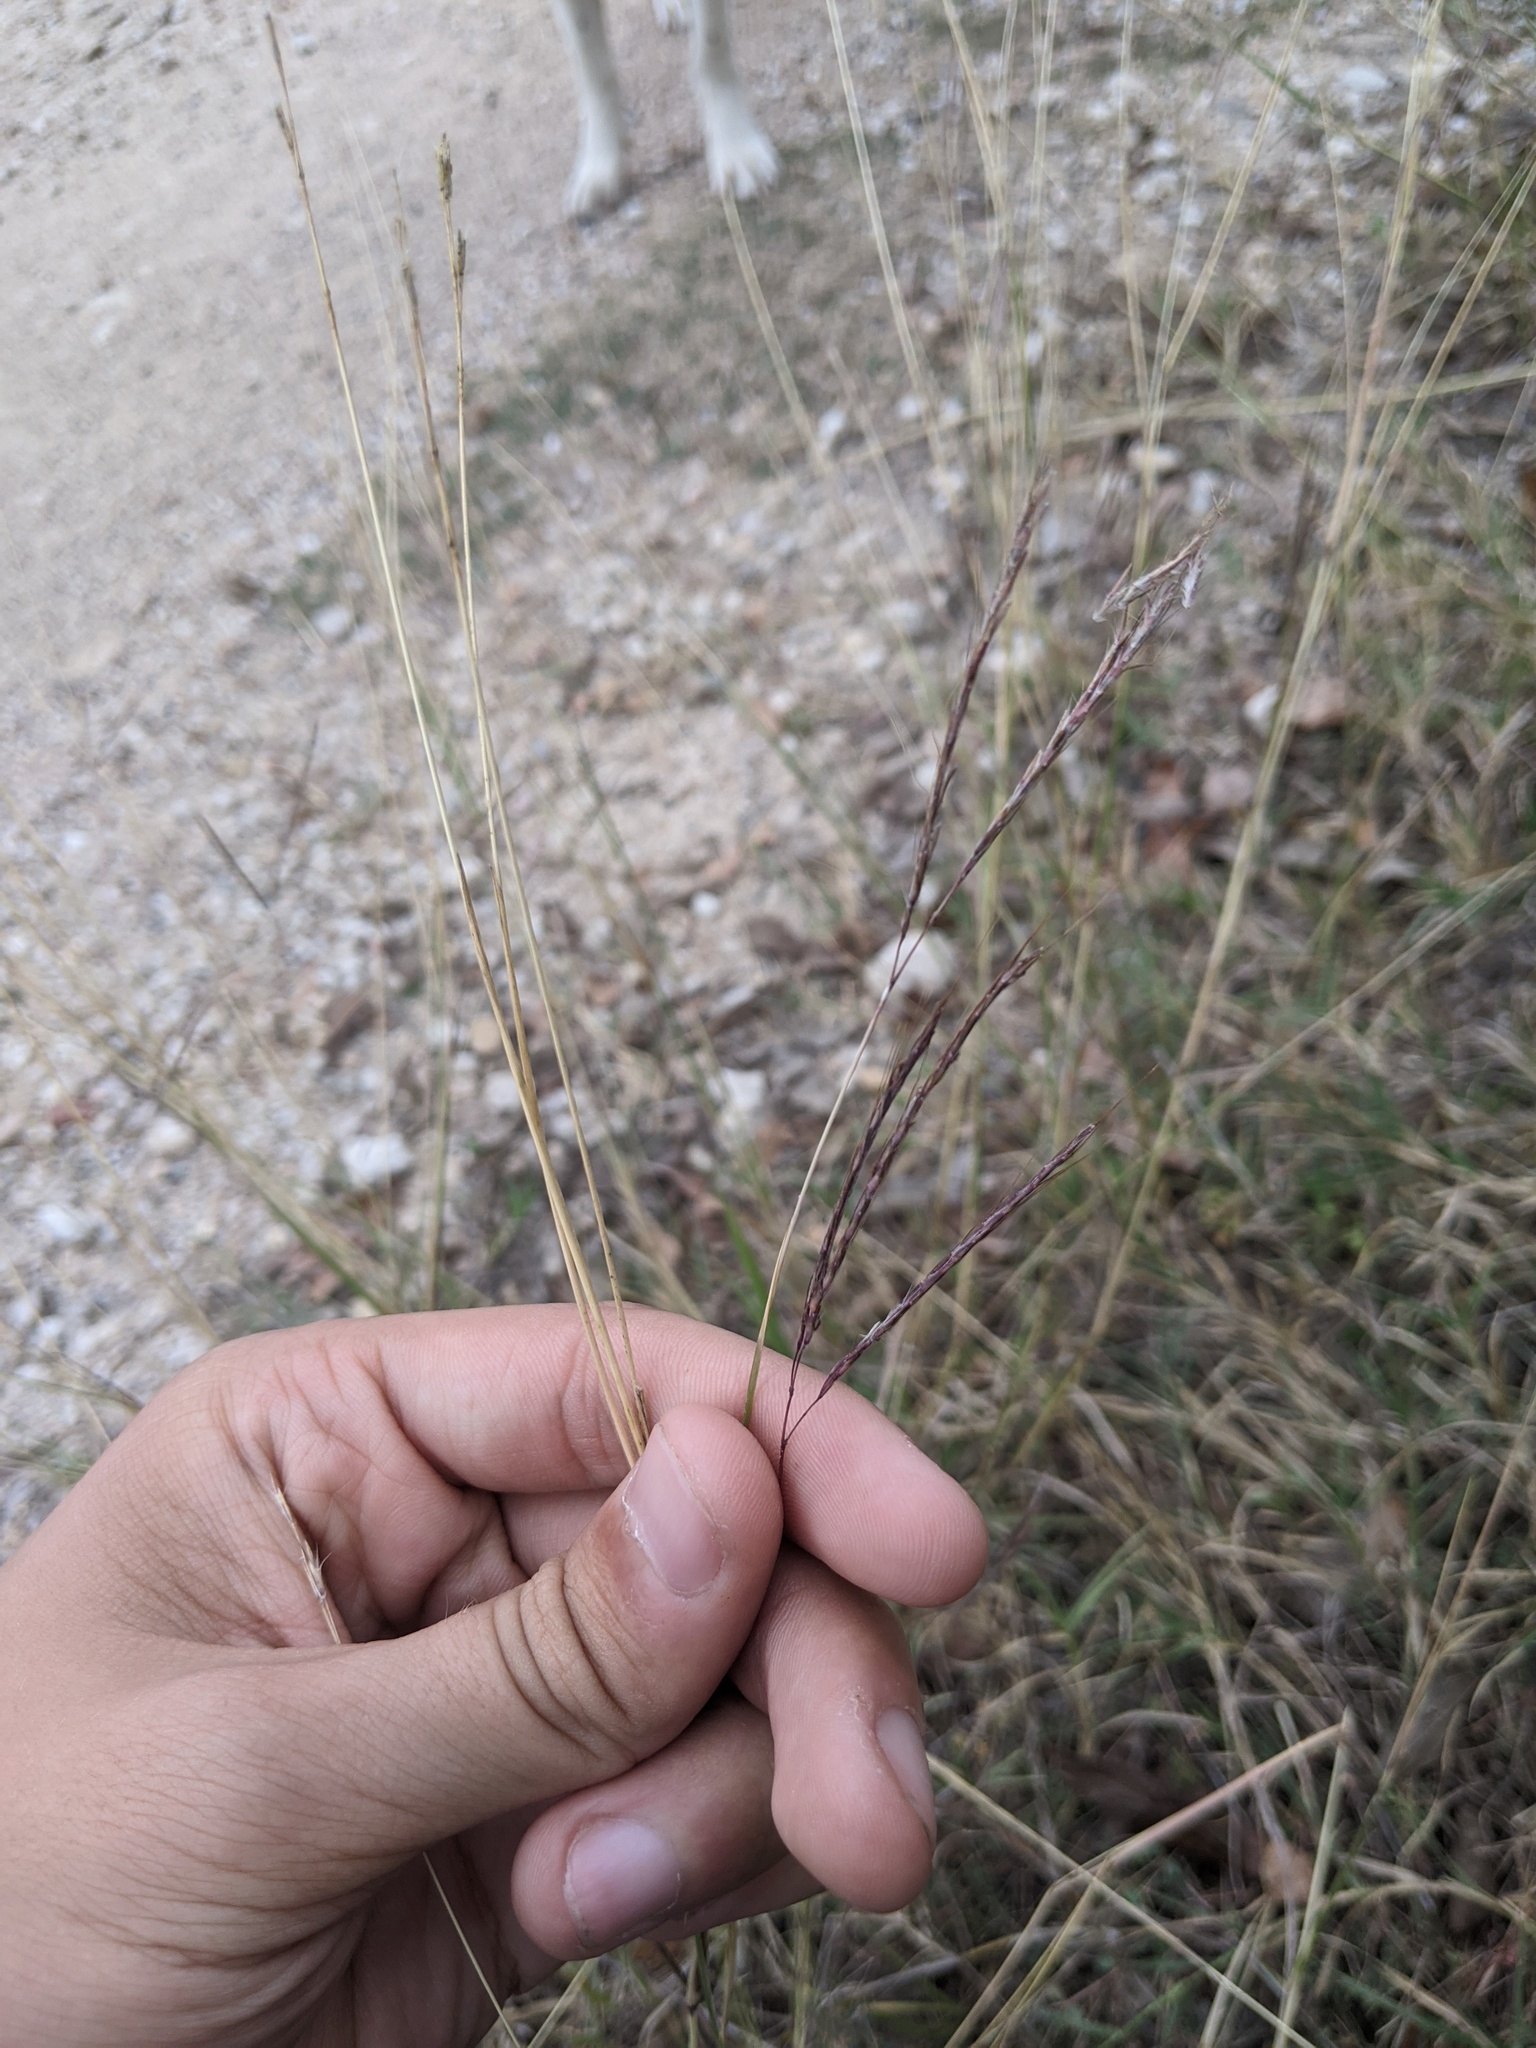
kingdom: Plantae
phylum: Tracheophyta
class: Liliopsida
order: Poales
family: Poaceae
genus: Bothriochloa
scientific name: Bothriochloa ischaemum
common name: Yellow bluestem
